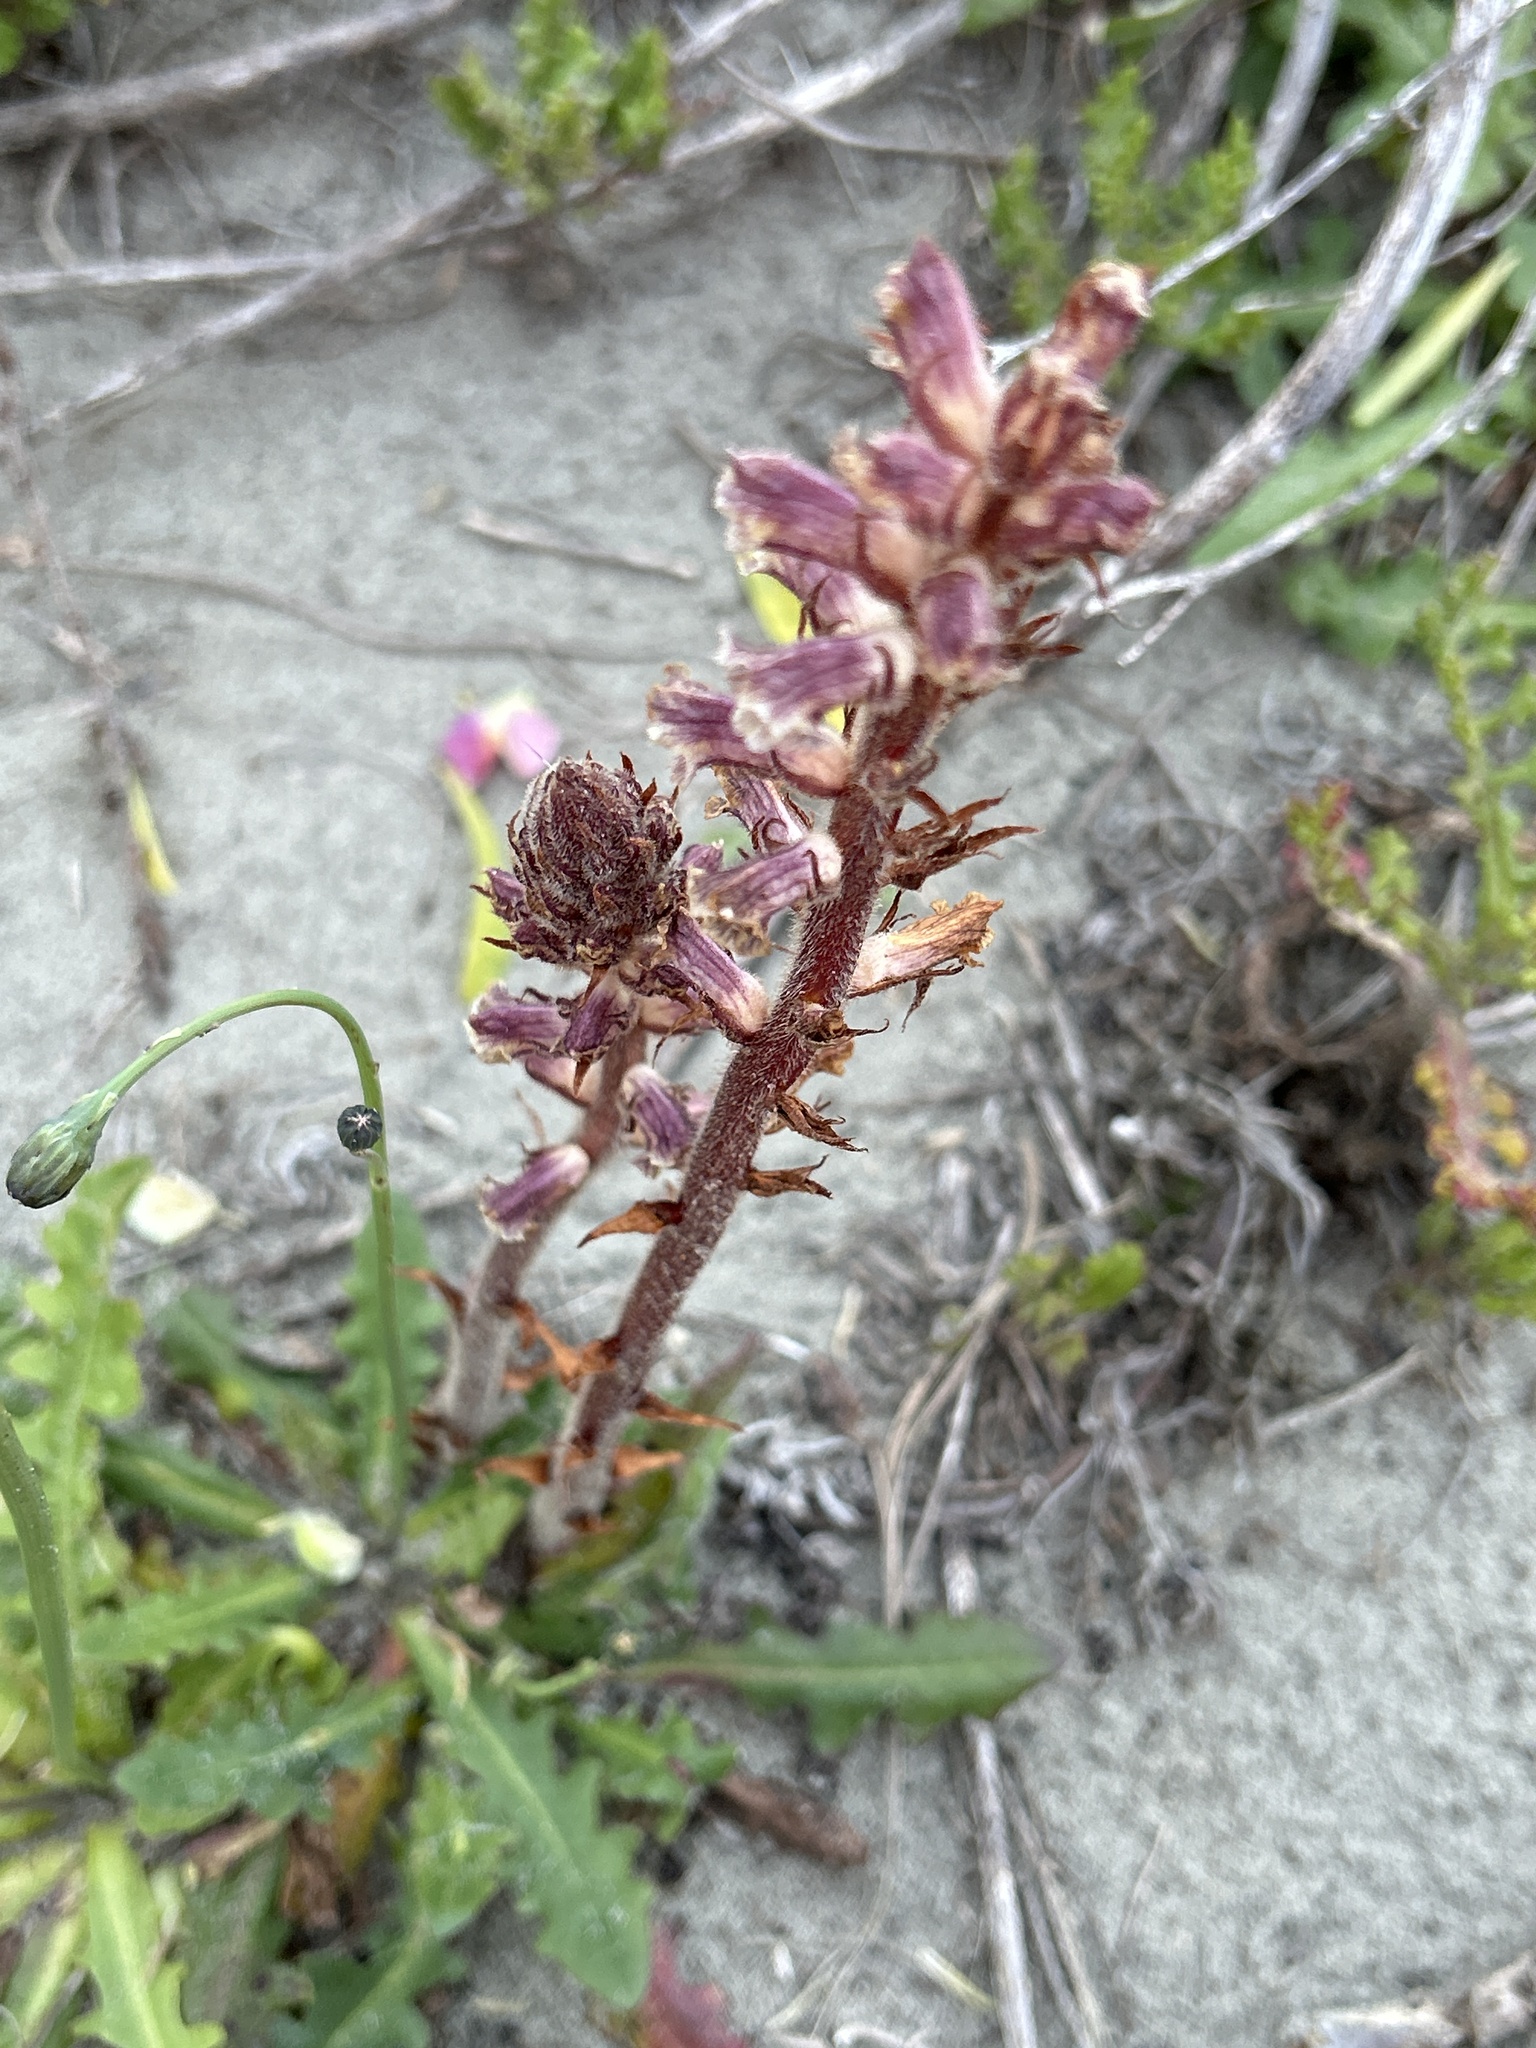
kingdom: Plantae
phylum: Tracheophyta
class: Magnoliopsida
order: Lamiales
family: Orobanchaceae
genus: Orobanche
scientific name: Orobanche minor
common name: Common broomrape
